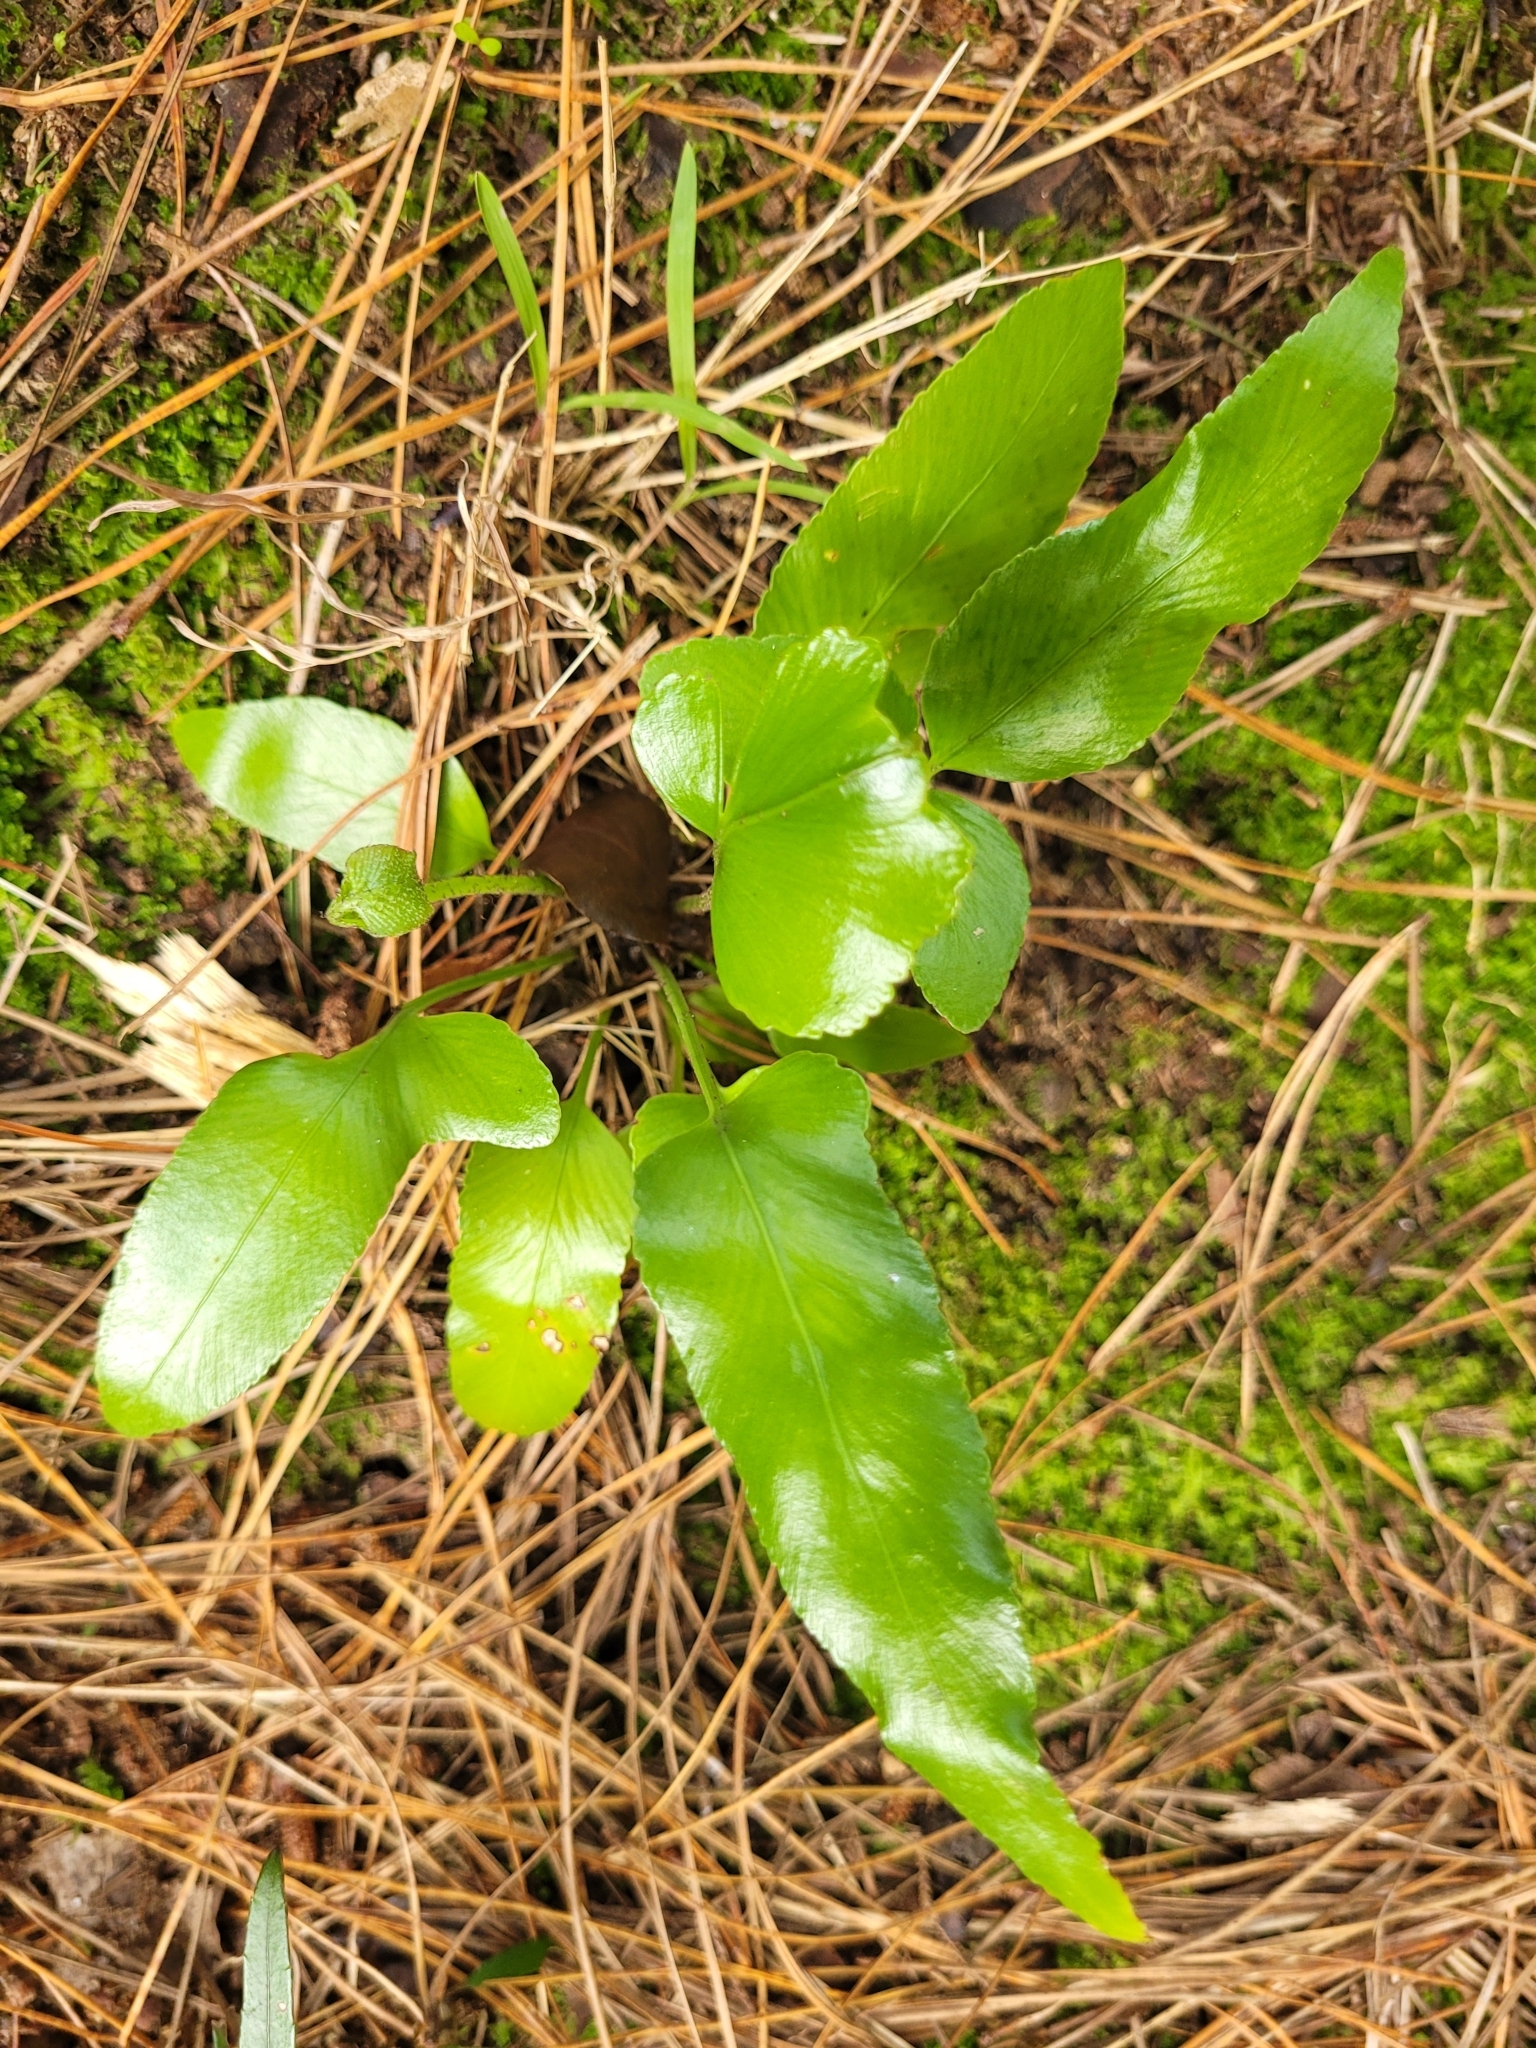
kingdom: Plantae
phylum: Tracheophyta
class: Polypodiopsida
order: Polypodiales
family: Aspleniaceae
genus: Asplenium
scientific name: Asplenium oblongifolium
